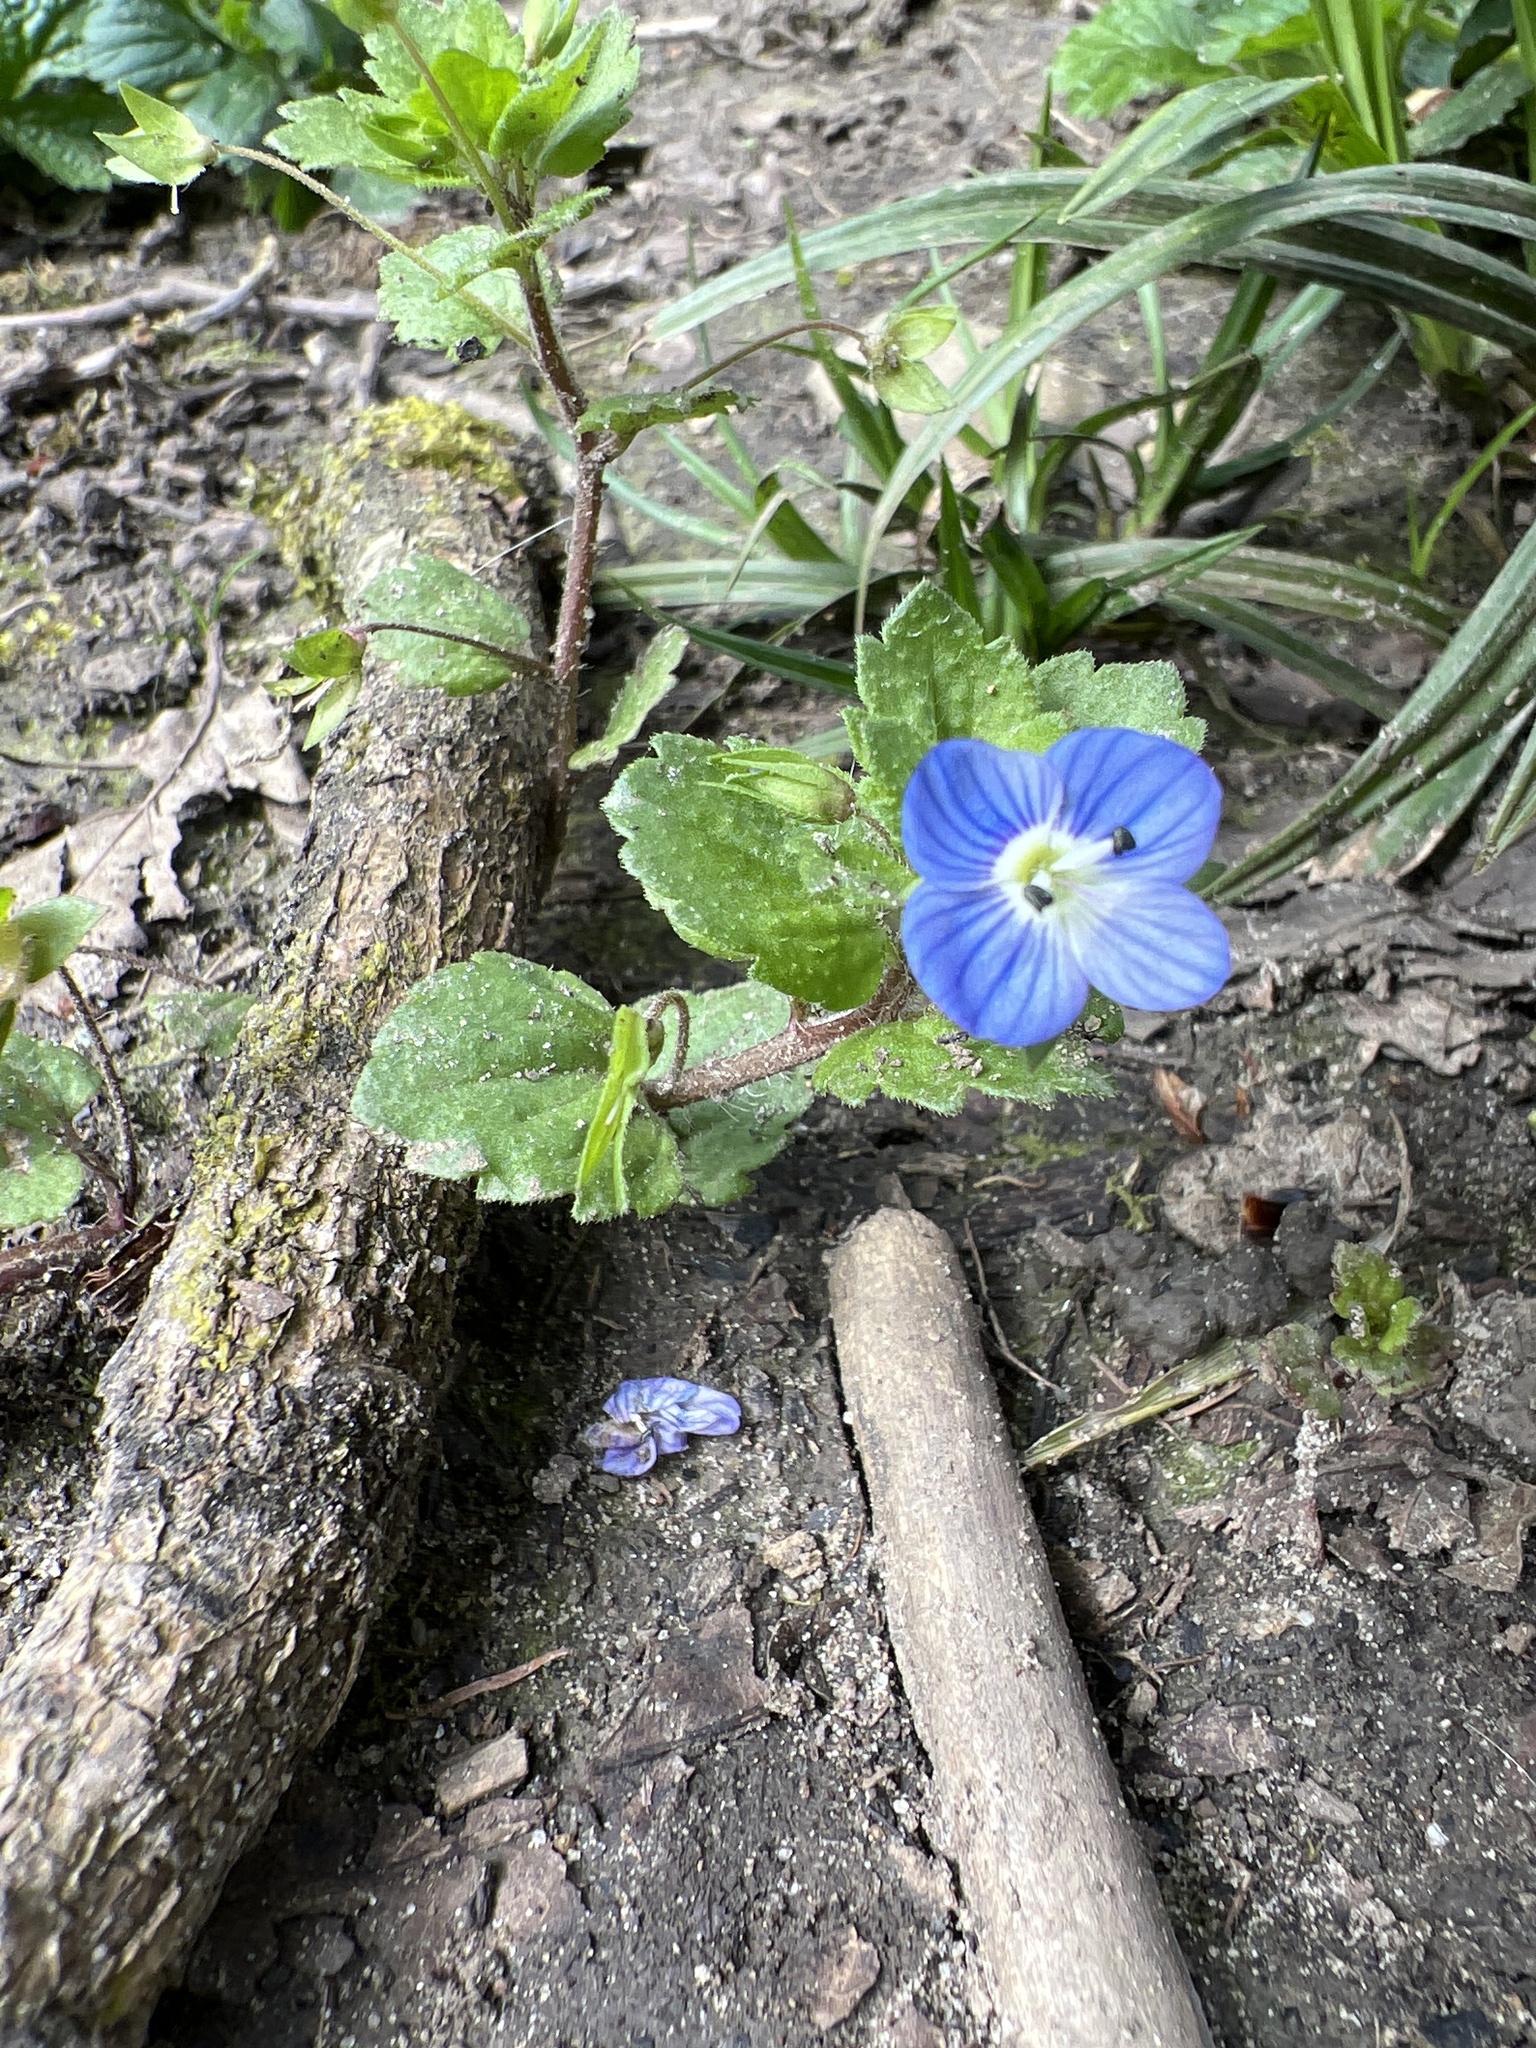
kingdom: Plantae
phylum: Tracheophyta
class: Magnoliopsida
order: Lamiales
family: Plantaginaceae
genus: Veronica
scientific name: Veronica persica
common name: Common field-speedwell
